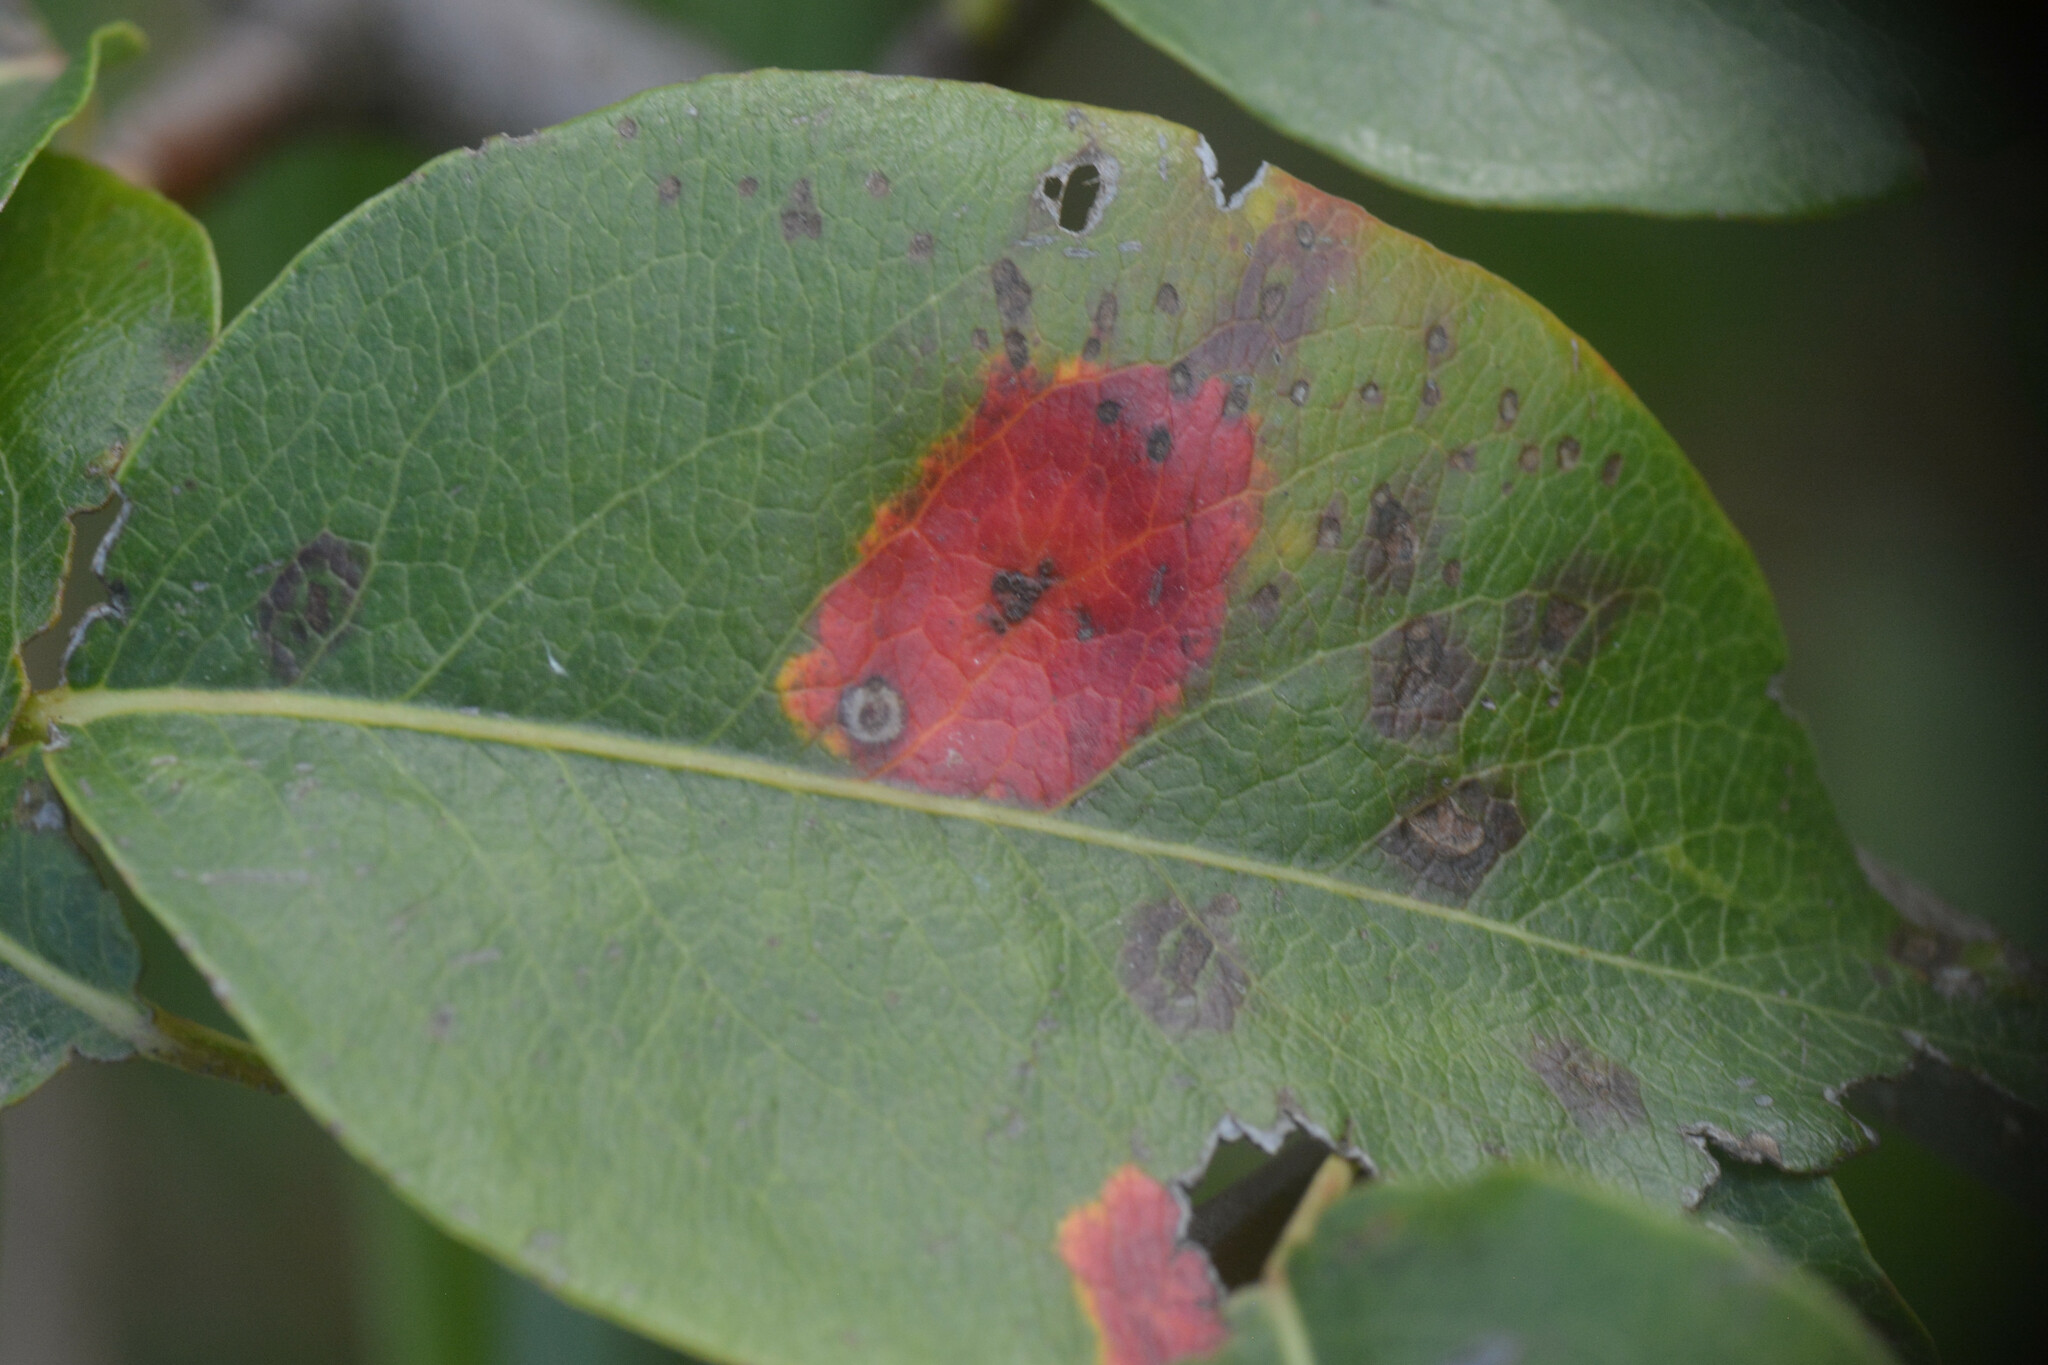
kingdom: Fungi
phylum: Basidiomycota
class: Pucciniomycetes
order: Pucciniales
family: Gymnosporangiaceae
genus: Gymnosporangium
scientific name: Gymnosporangium sabinae
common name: Pear trellis rust fungus
